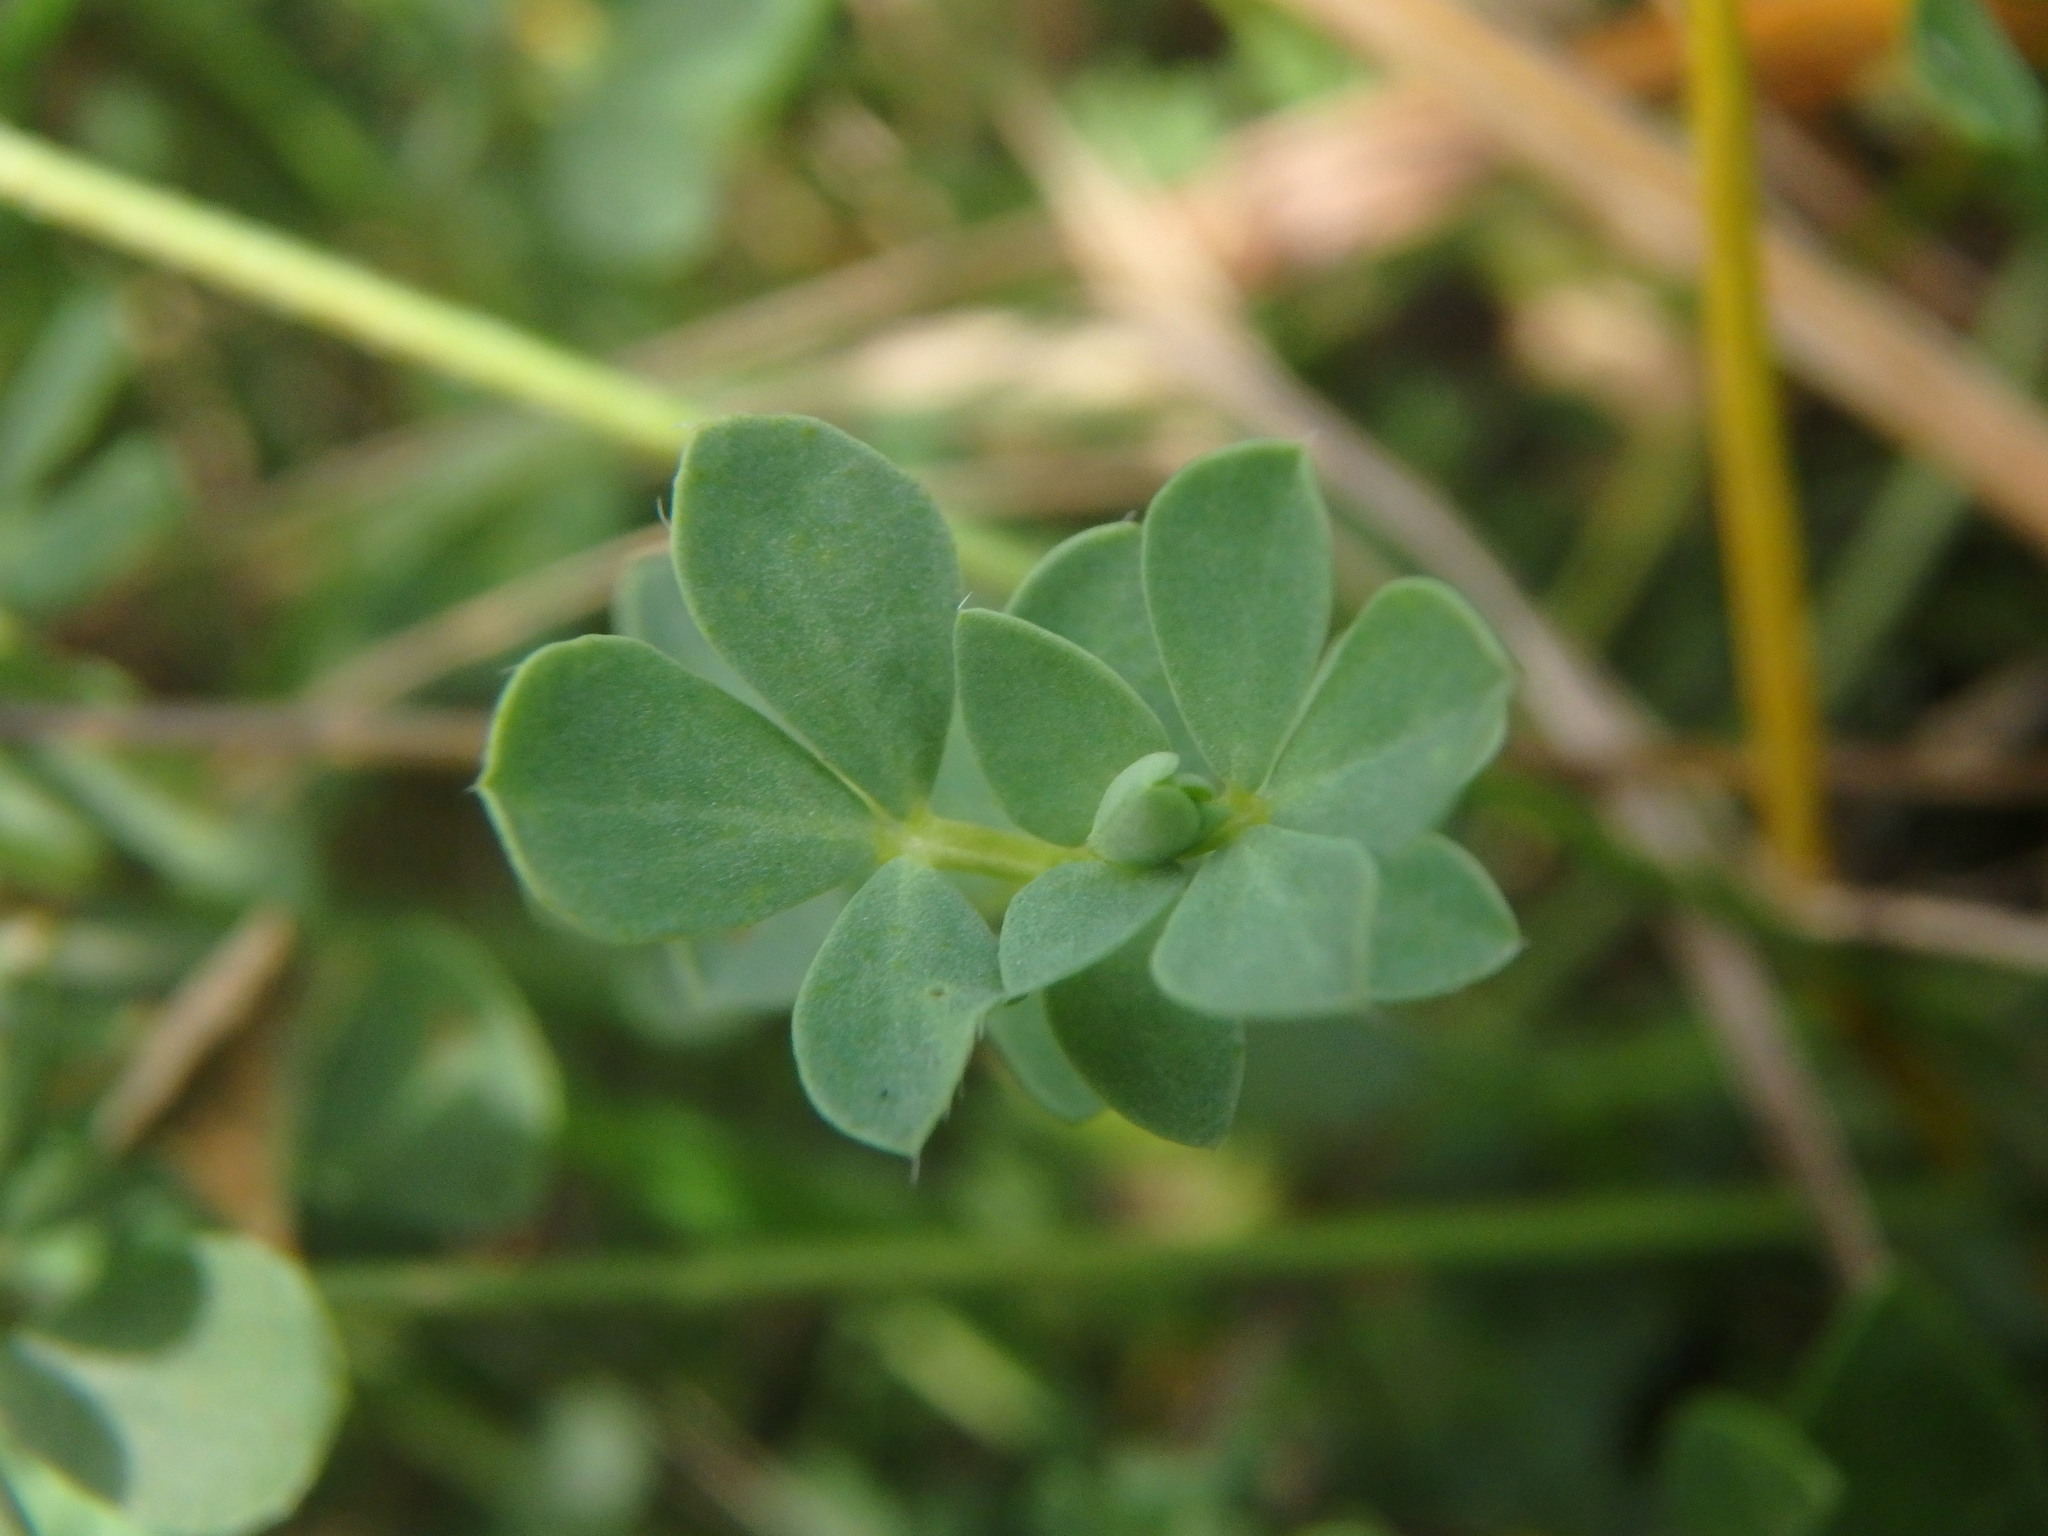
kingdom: Plantae
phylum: Tracheophyta
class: Magnoliopsida
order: Fabales
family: Fabaceae
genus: Lotus
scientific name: Lotus corniculatus
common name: Common bird's-foot-trefoil
